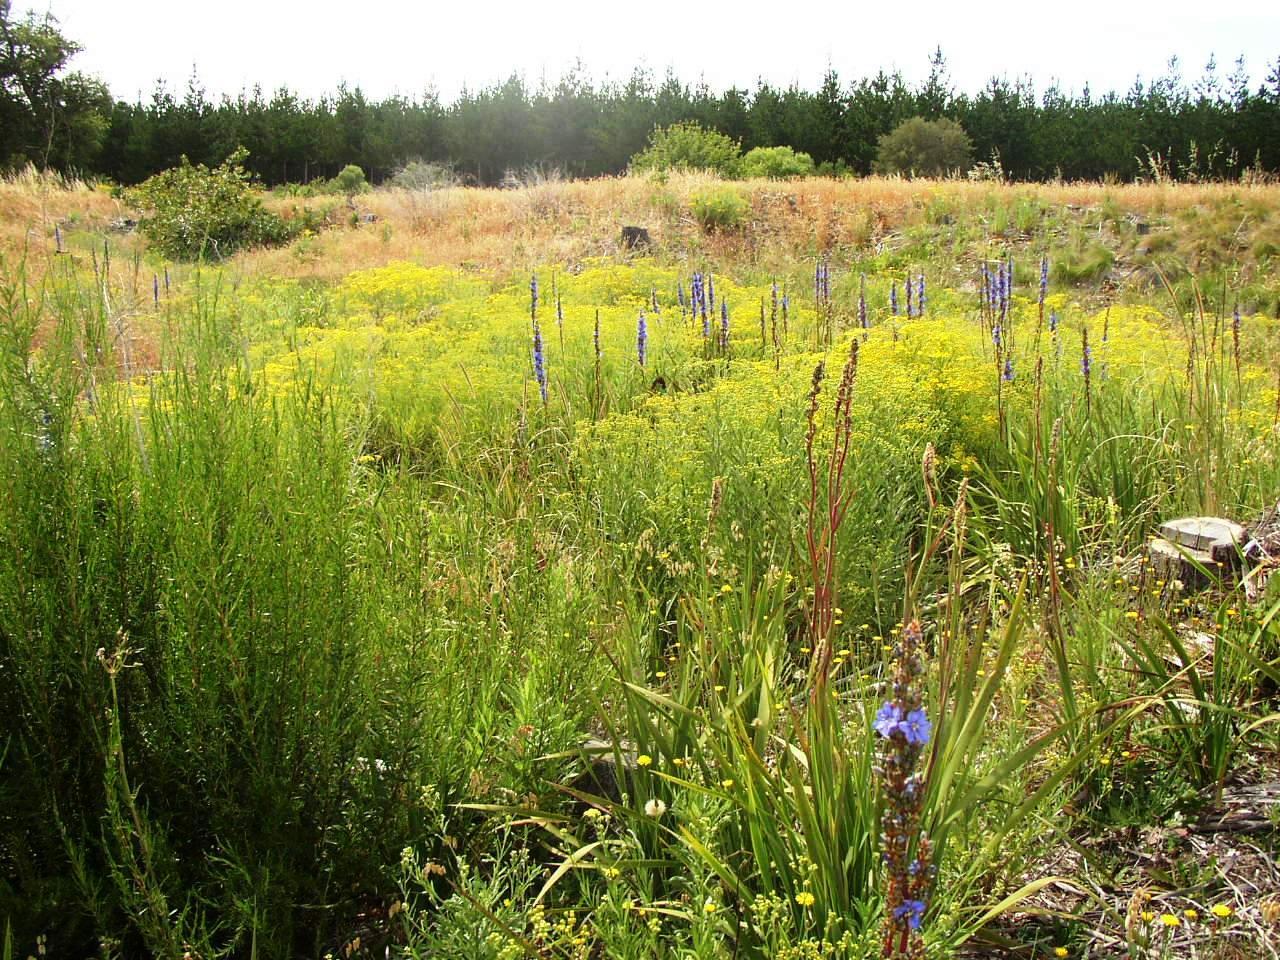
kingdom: Plantae
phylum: Tracheophyta
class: Liliopsida
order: Asparagales
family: Iridaceae
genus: Aristea
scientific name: Aristea capitata
